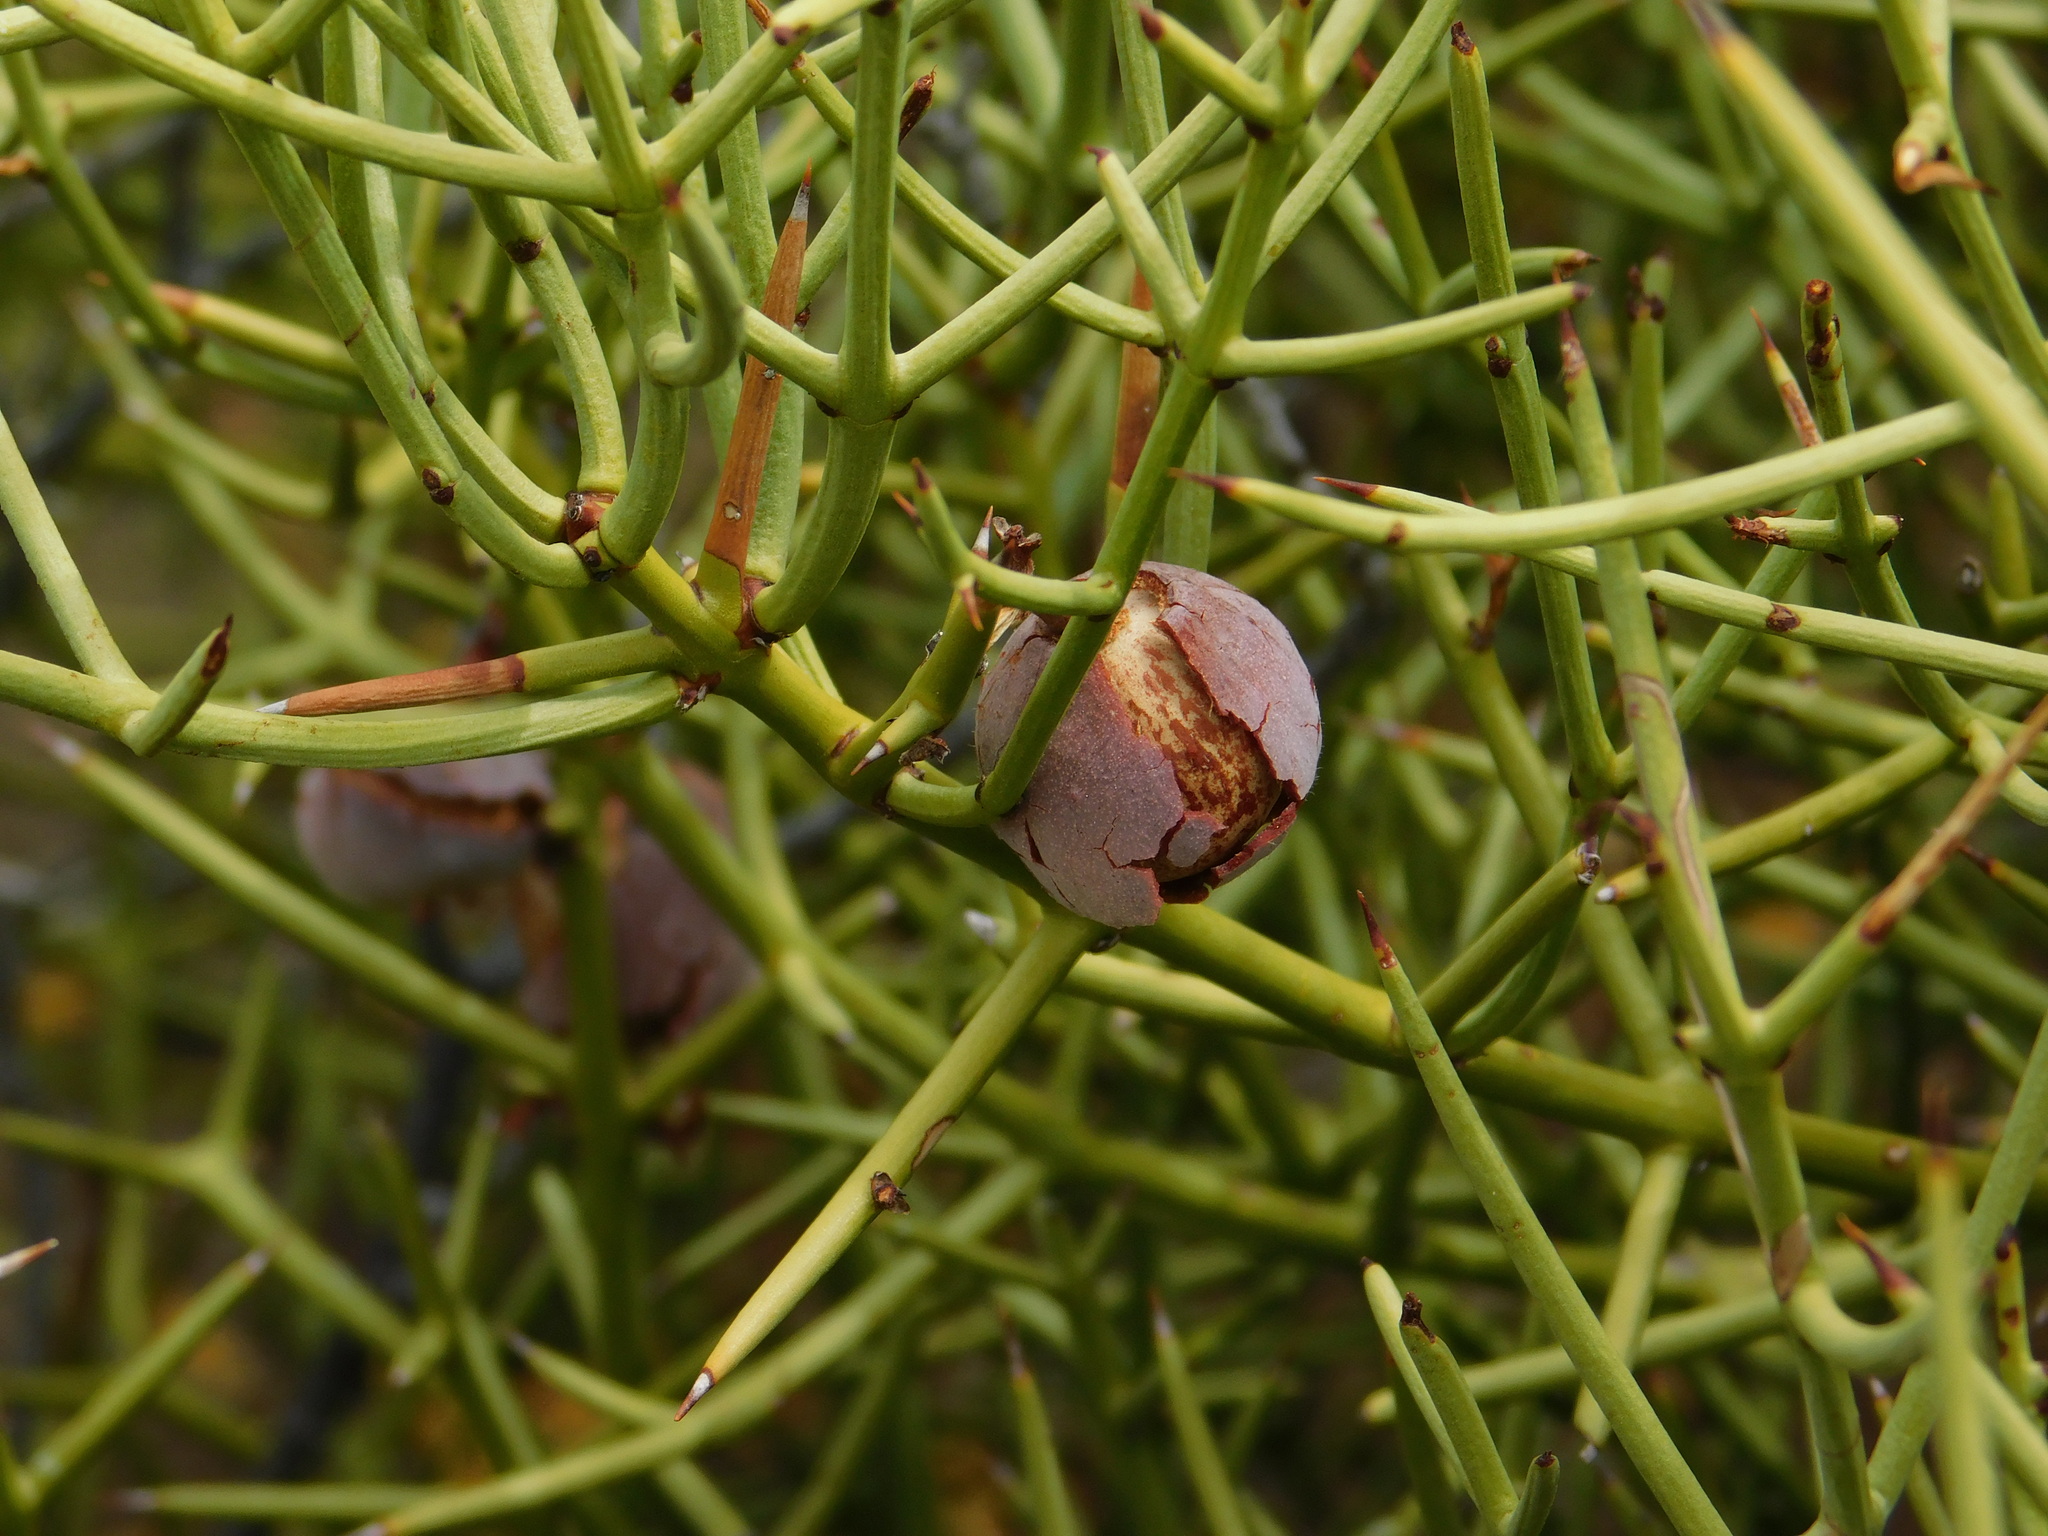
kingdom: Plantae
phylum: Tracheophyta
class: Magnoliopsida
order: Rosales
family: Rhamnaceae
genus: Colletia
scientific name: Colletia hystrix
